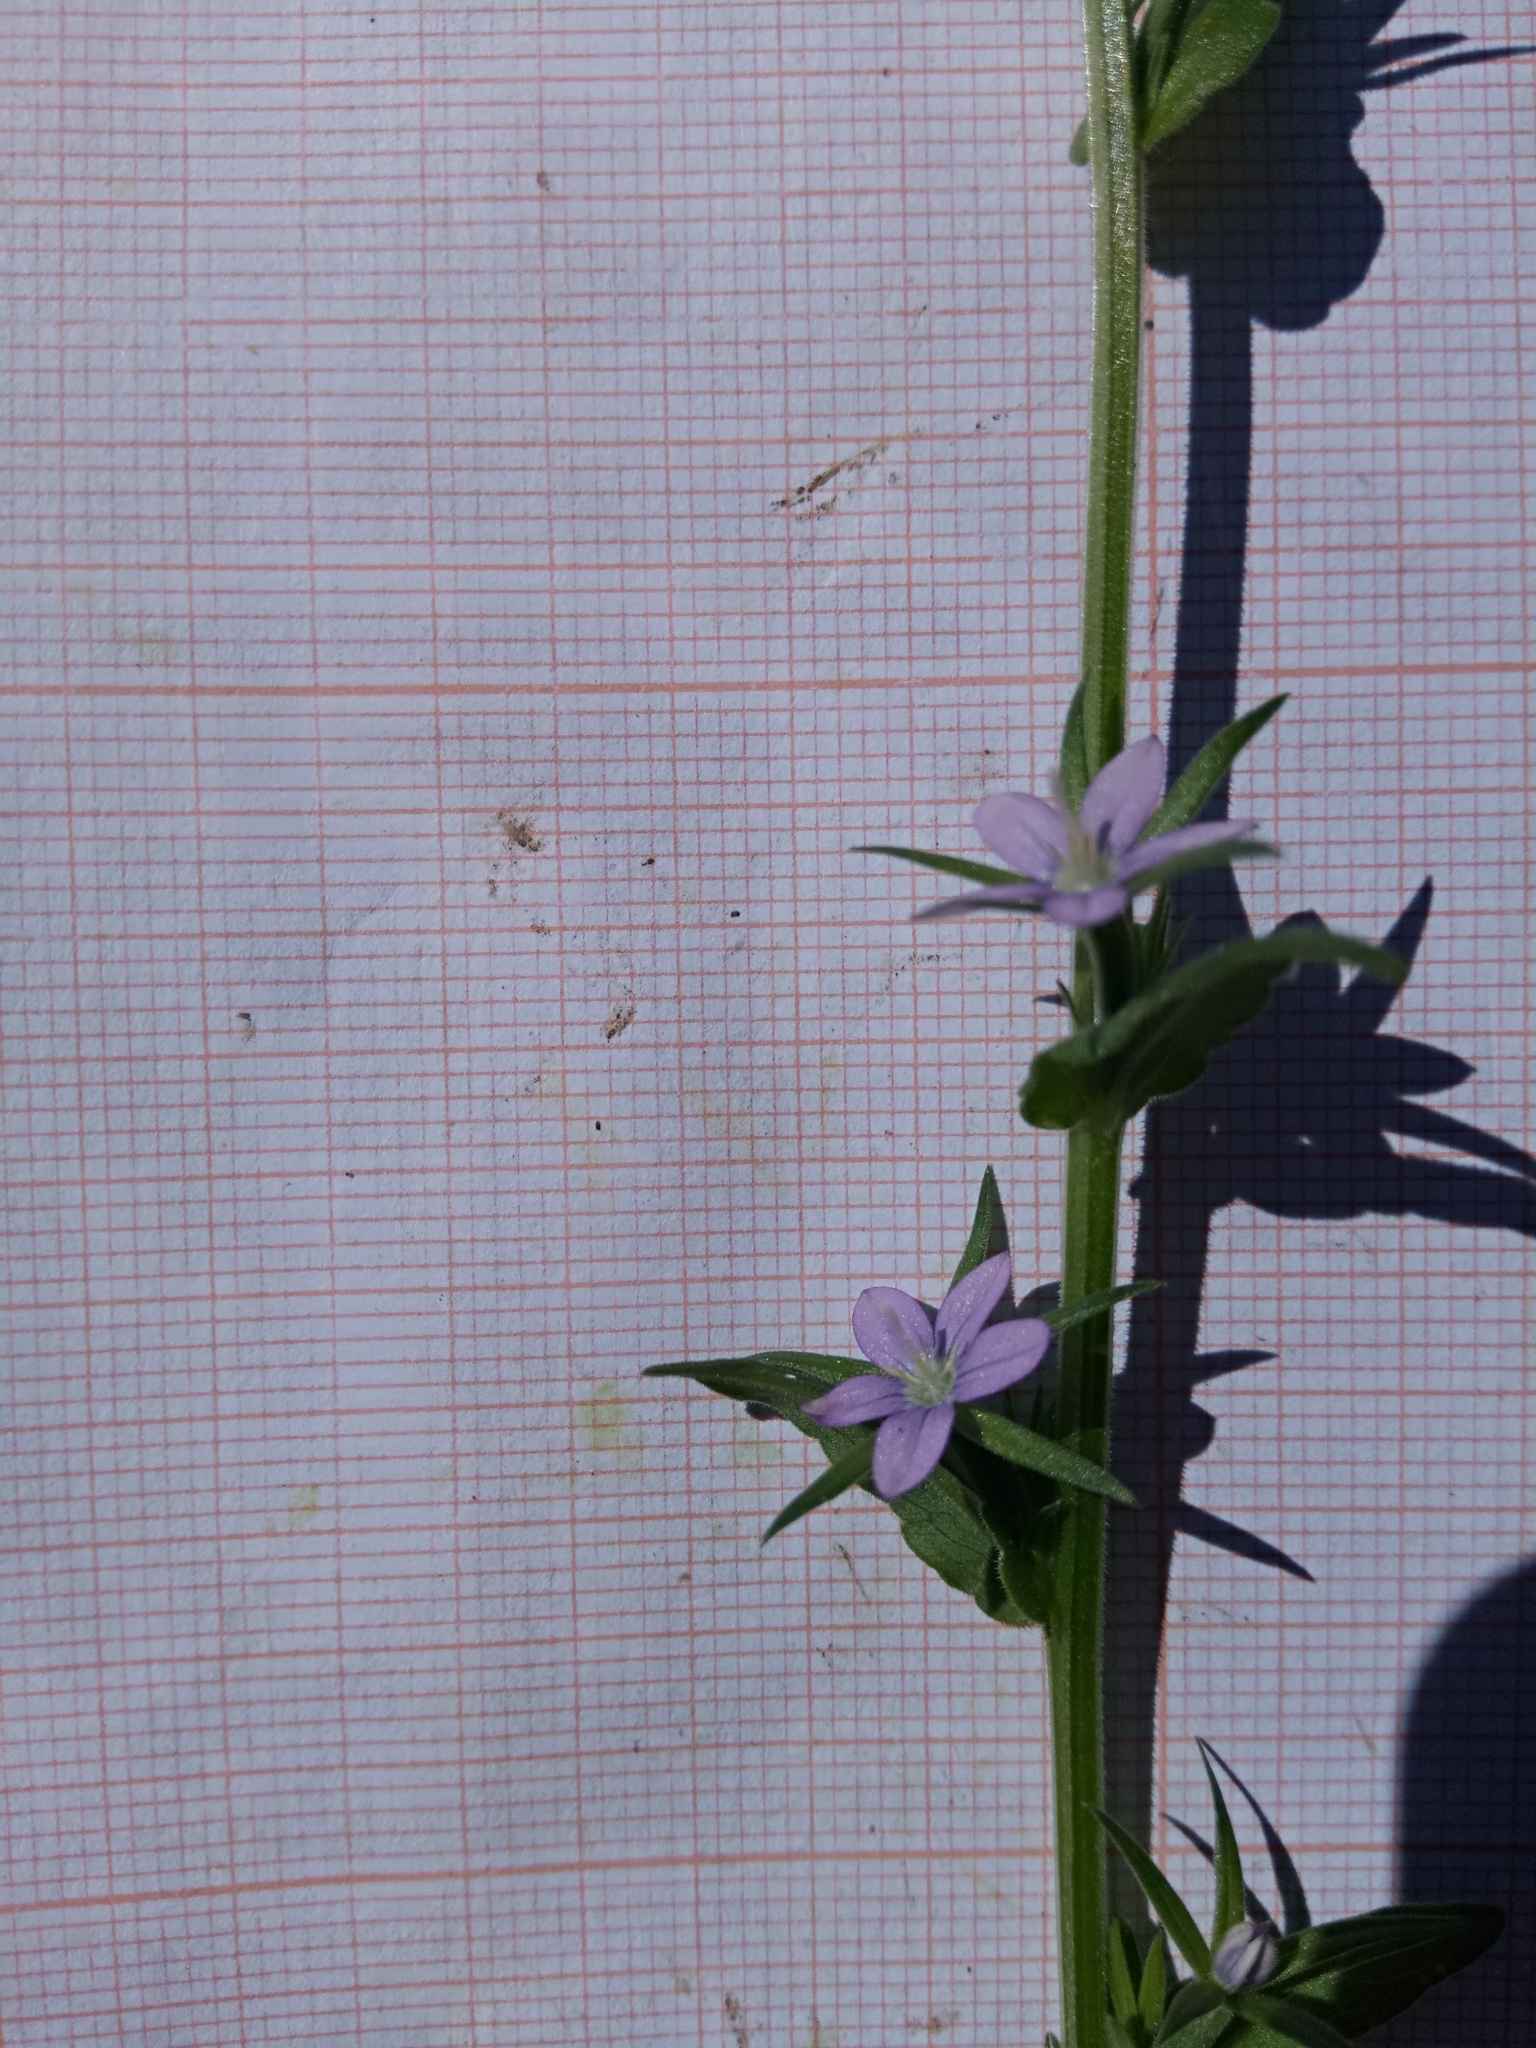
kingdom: Plantae
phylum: Tracheophyta
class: Magnoliopsida
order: Asterales
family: Campanulaceae
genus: Legousia
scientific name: Legousia falcata
